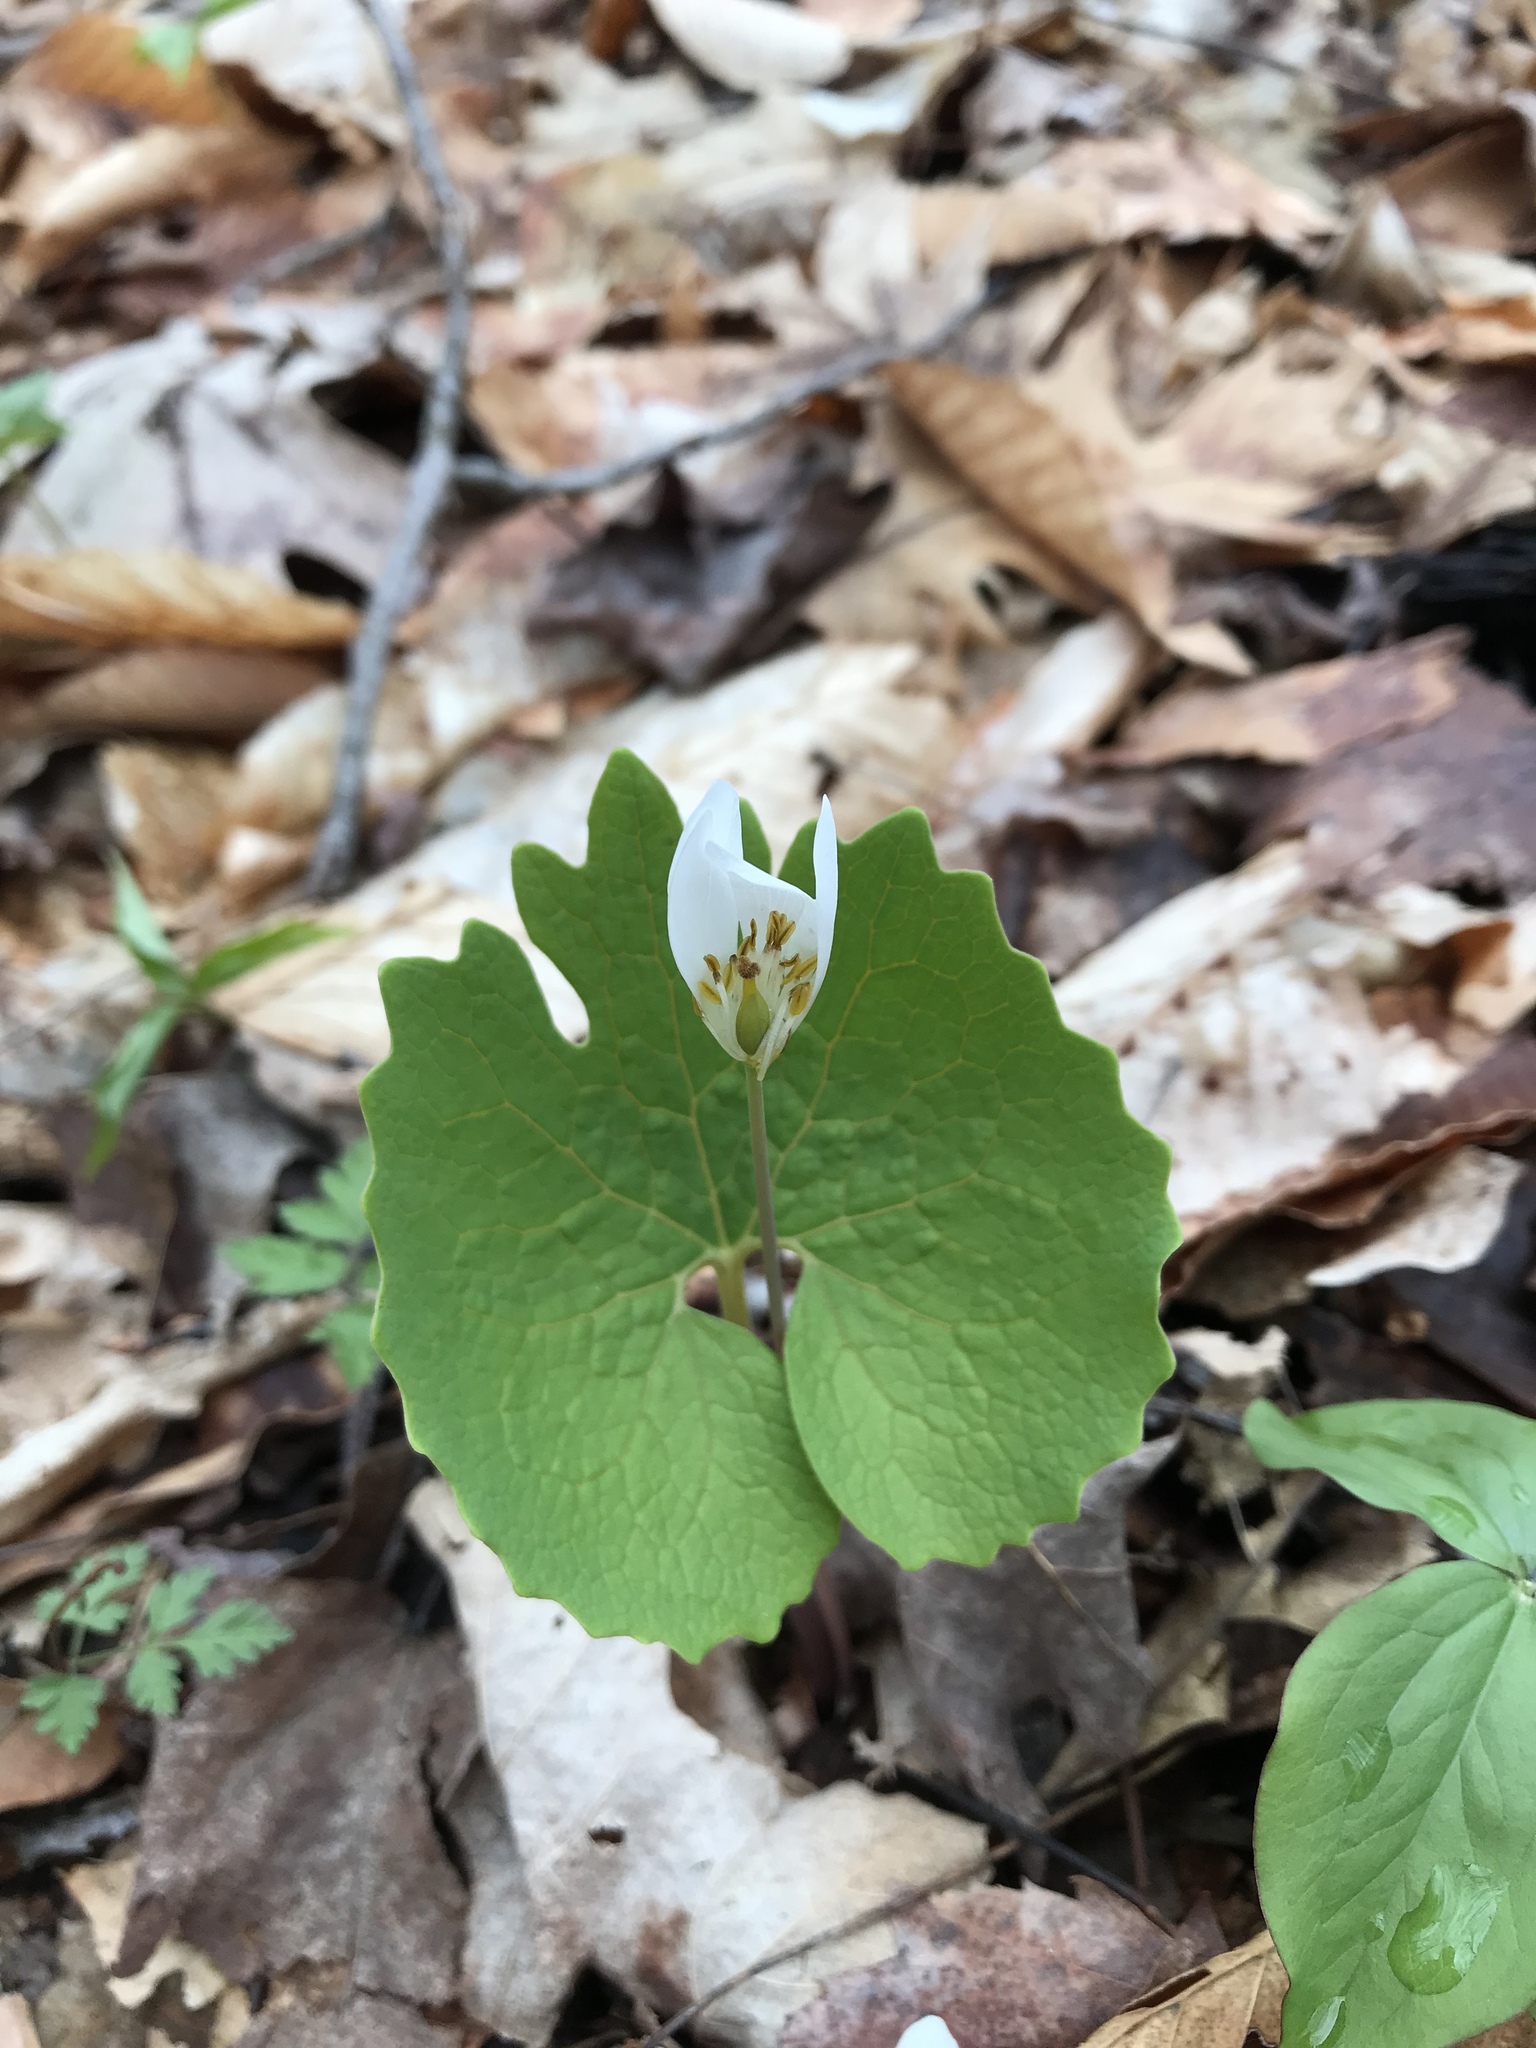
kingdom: Plantae
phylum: Tracheophyta
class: Magnoliopsida
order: Ranunculales
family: Papaveraceae
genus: Sanguinaria
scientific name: Sanguinaria canadensis
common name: Bloodroot
